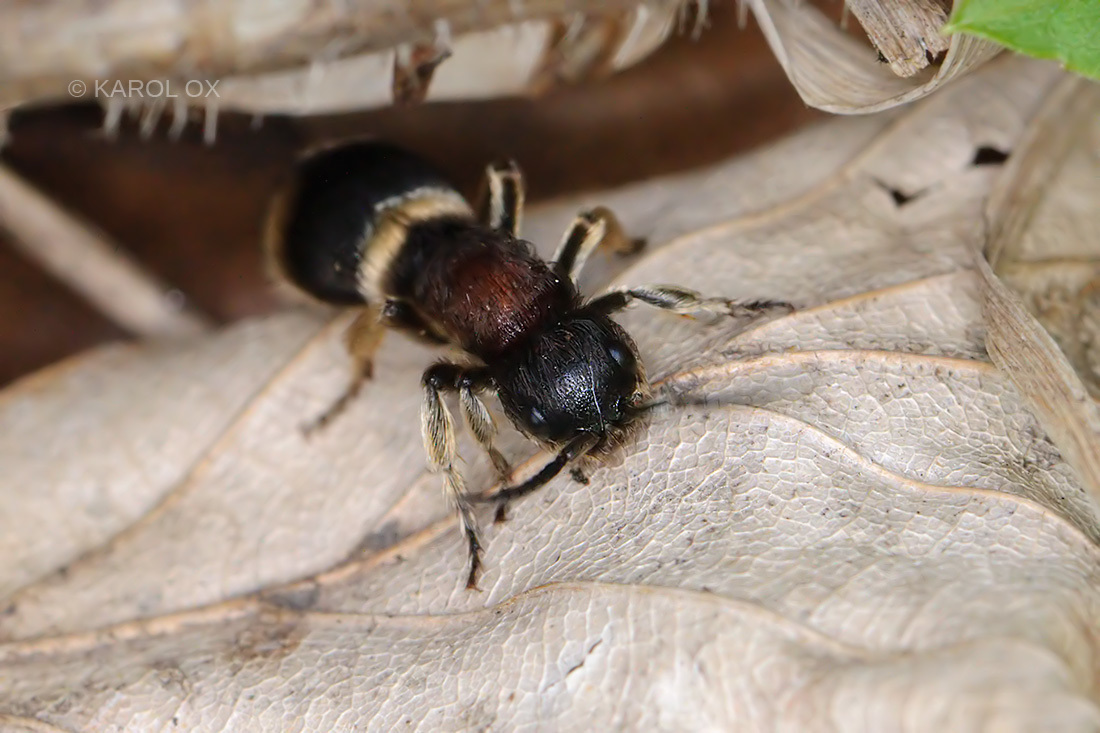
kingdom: Animalia
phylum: Arthropoda
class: Insecta
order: Hymenoptera
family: Mutillidae
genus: Mutilla
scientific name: Mutilla marginata
